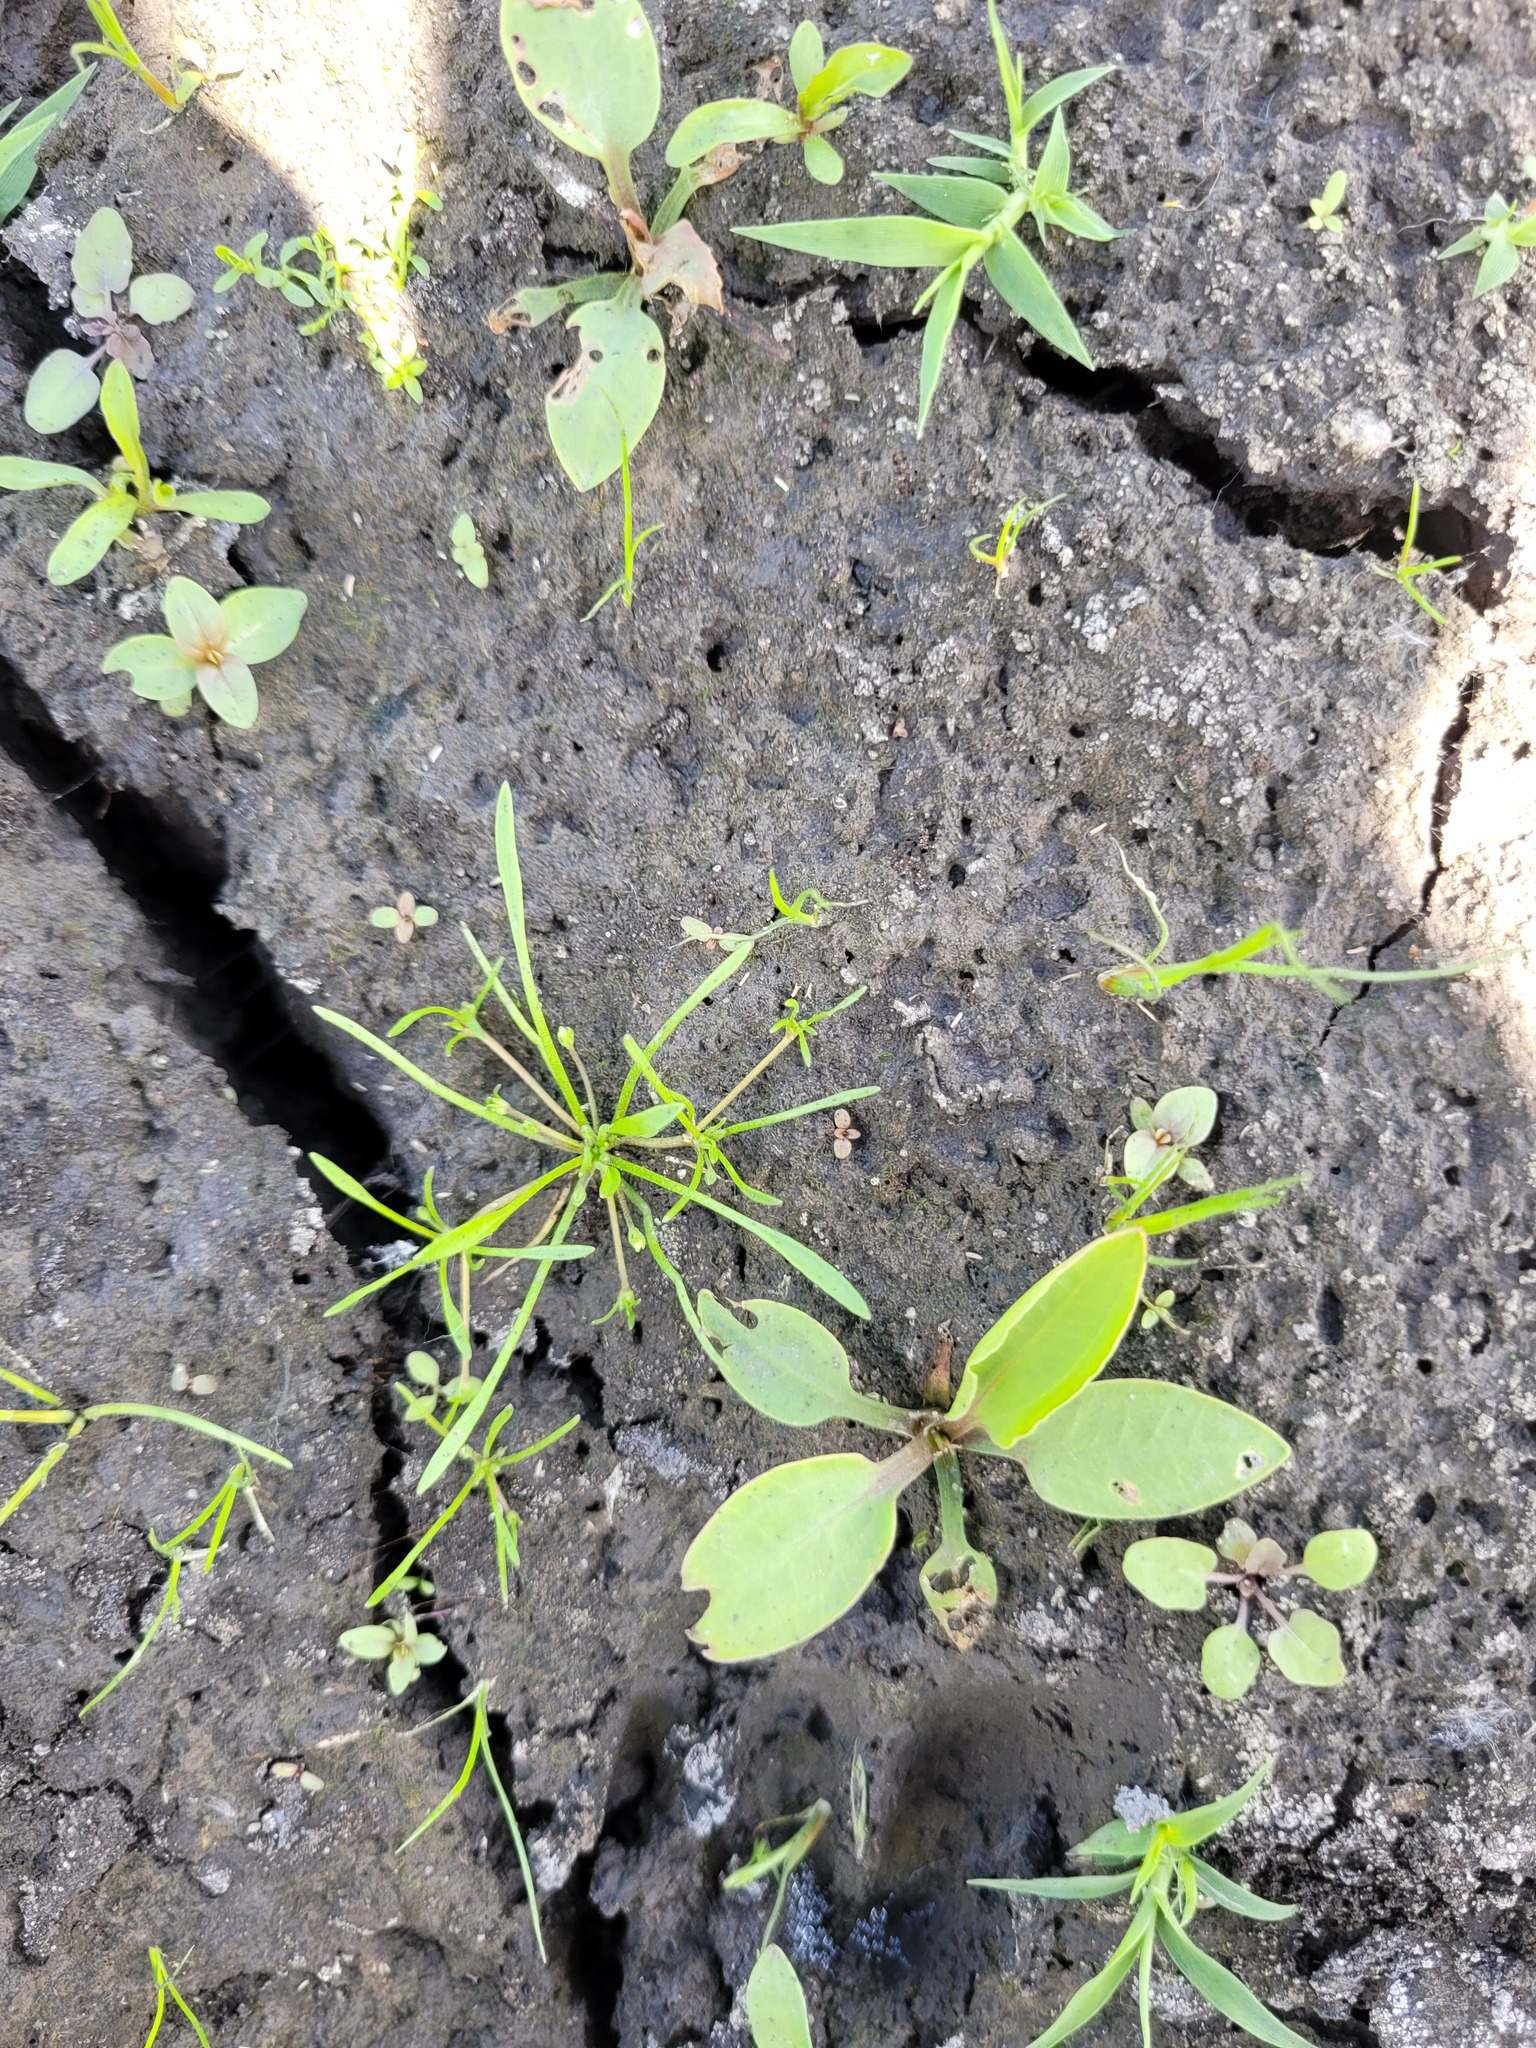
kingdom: Plantae
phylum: Tracheophyta
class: Magnoliopsida
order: Lamiales
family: Scrophulariaceae
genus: Limosella
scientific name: Limosella aquatica
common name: Mudwort
